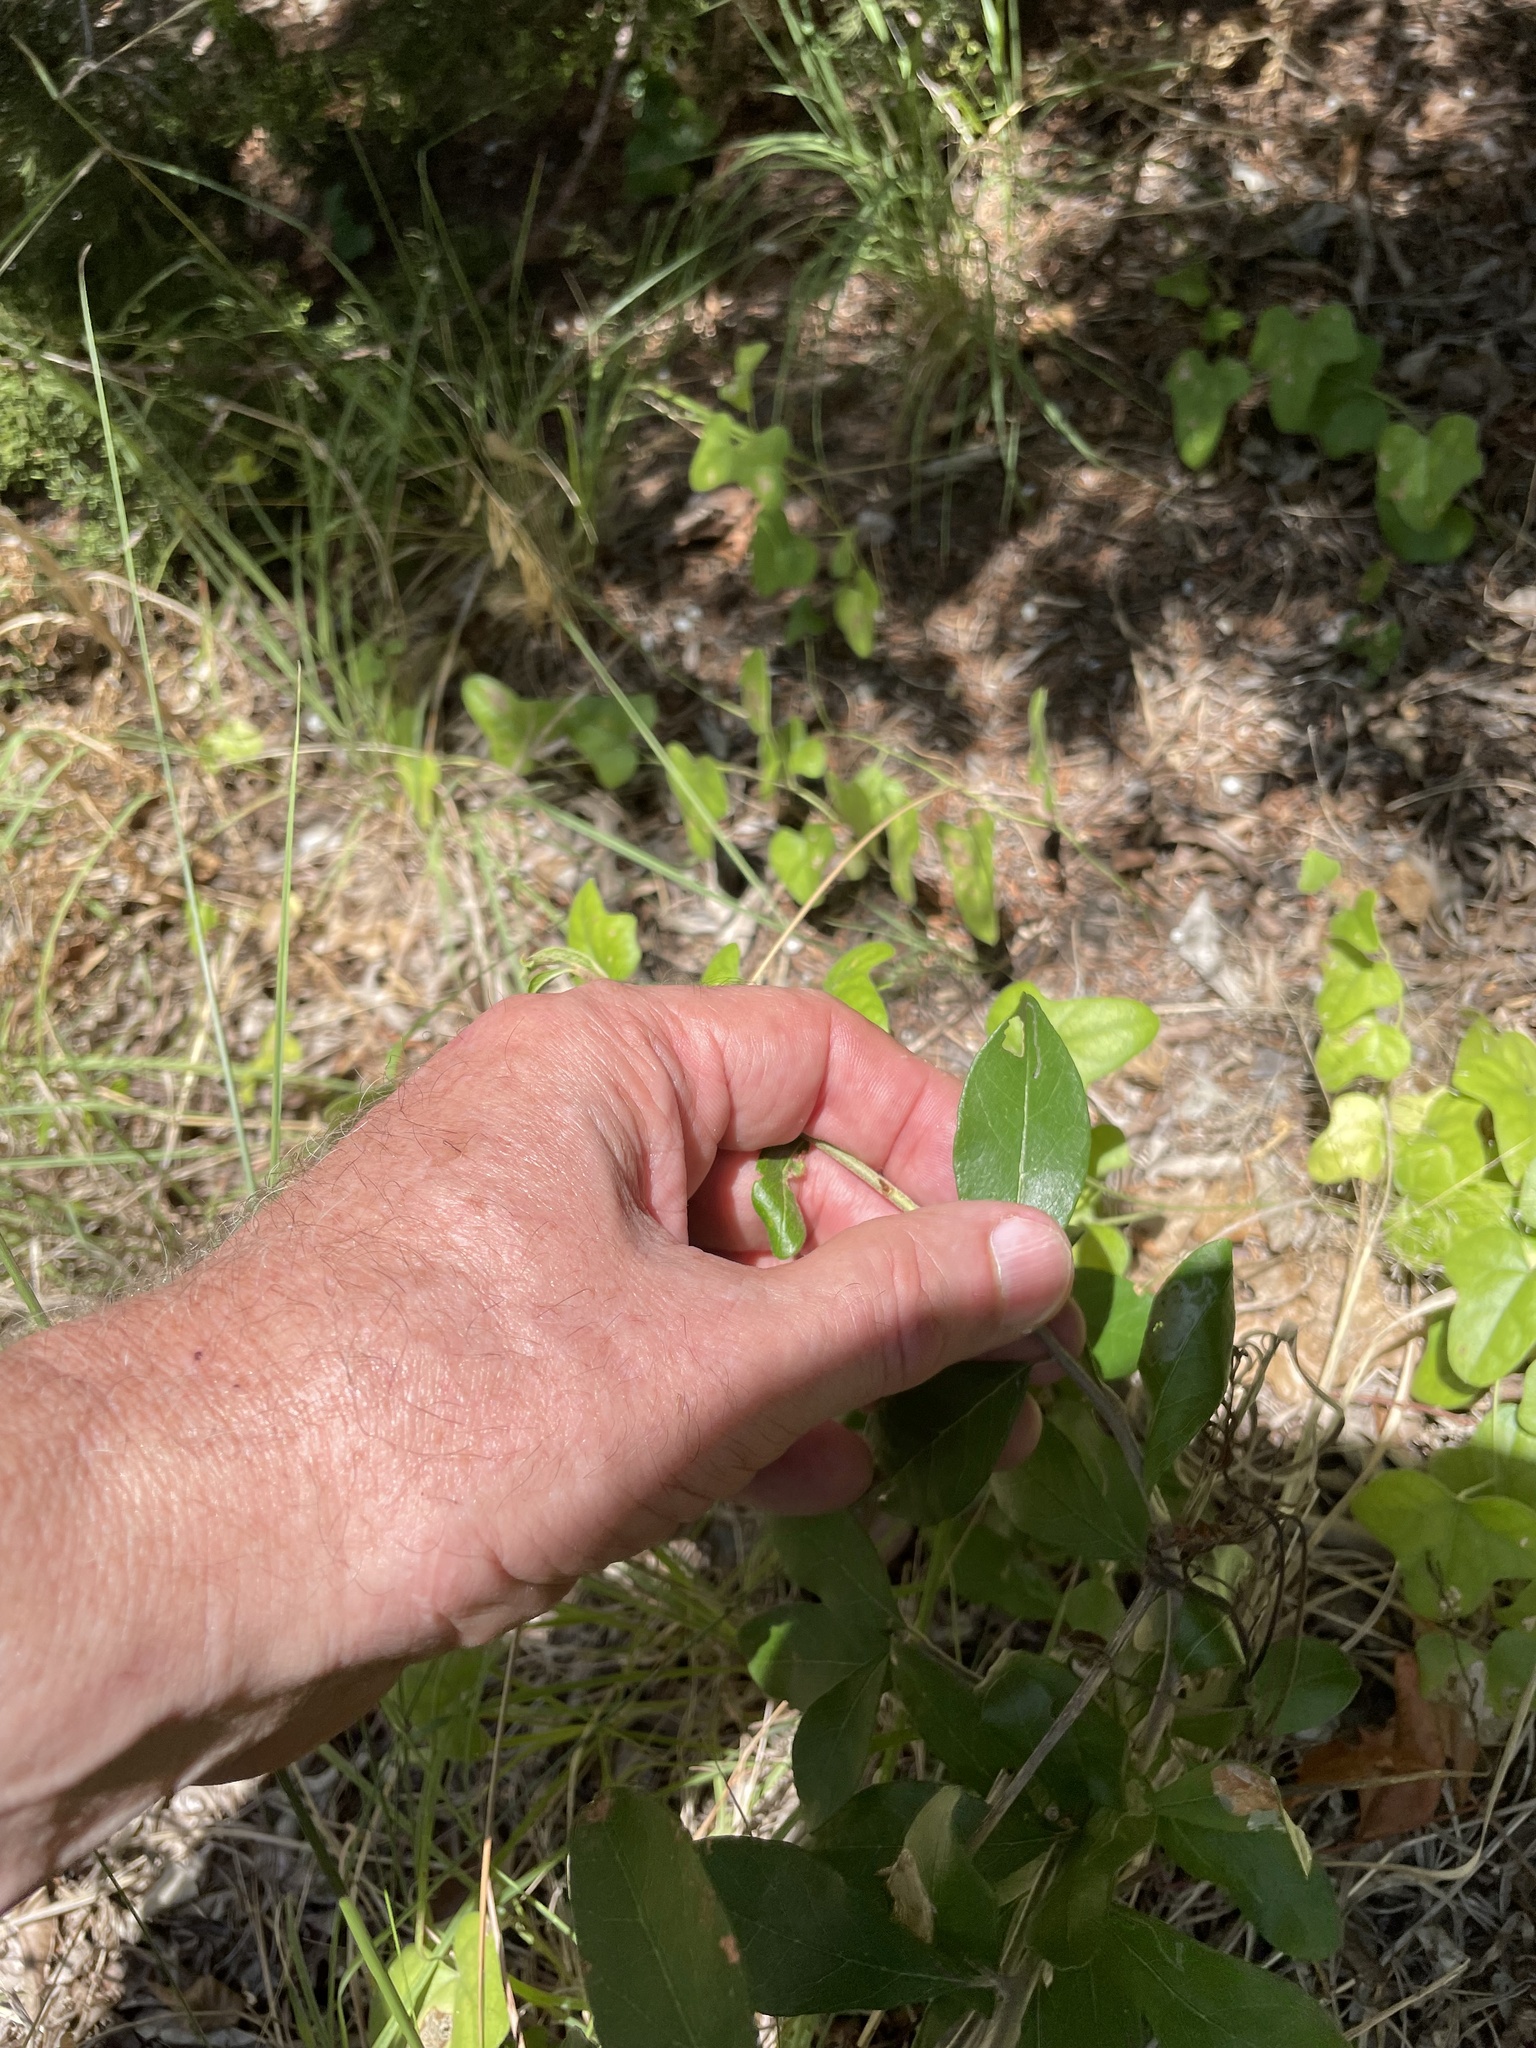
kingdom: Plantae
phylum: Tracheophyta
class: Magnoliopsida
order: Ericales
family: Sapotaceae
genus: Sideroxylon
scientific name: Sideroxylon lanuginosum
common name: Chittamwood
